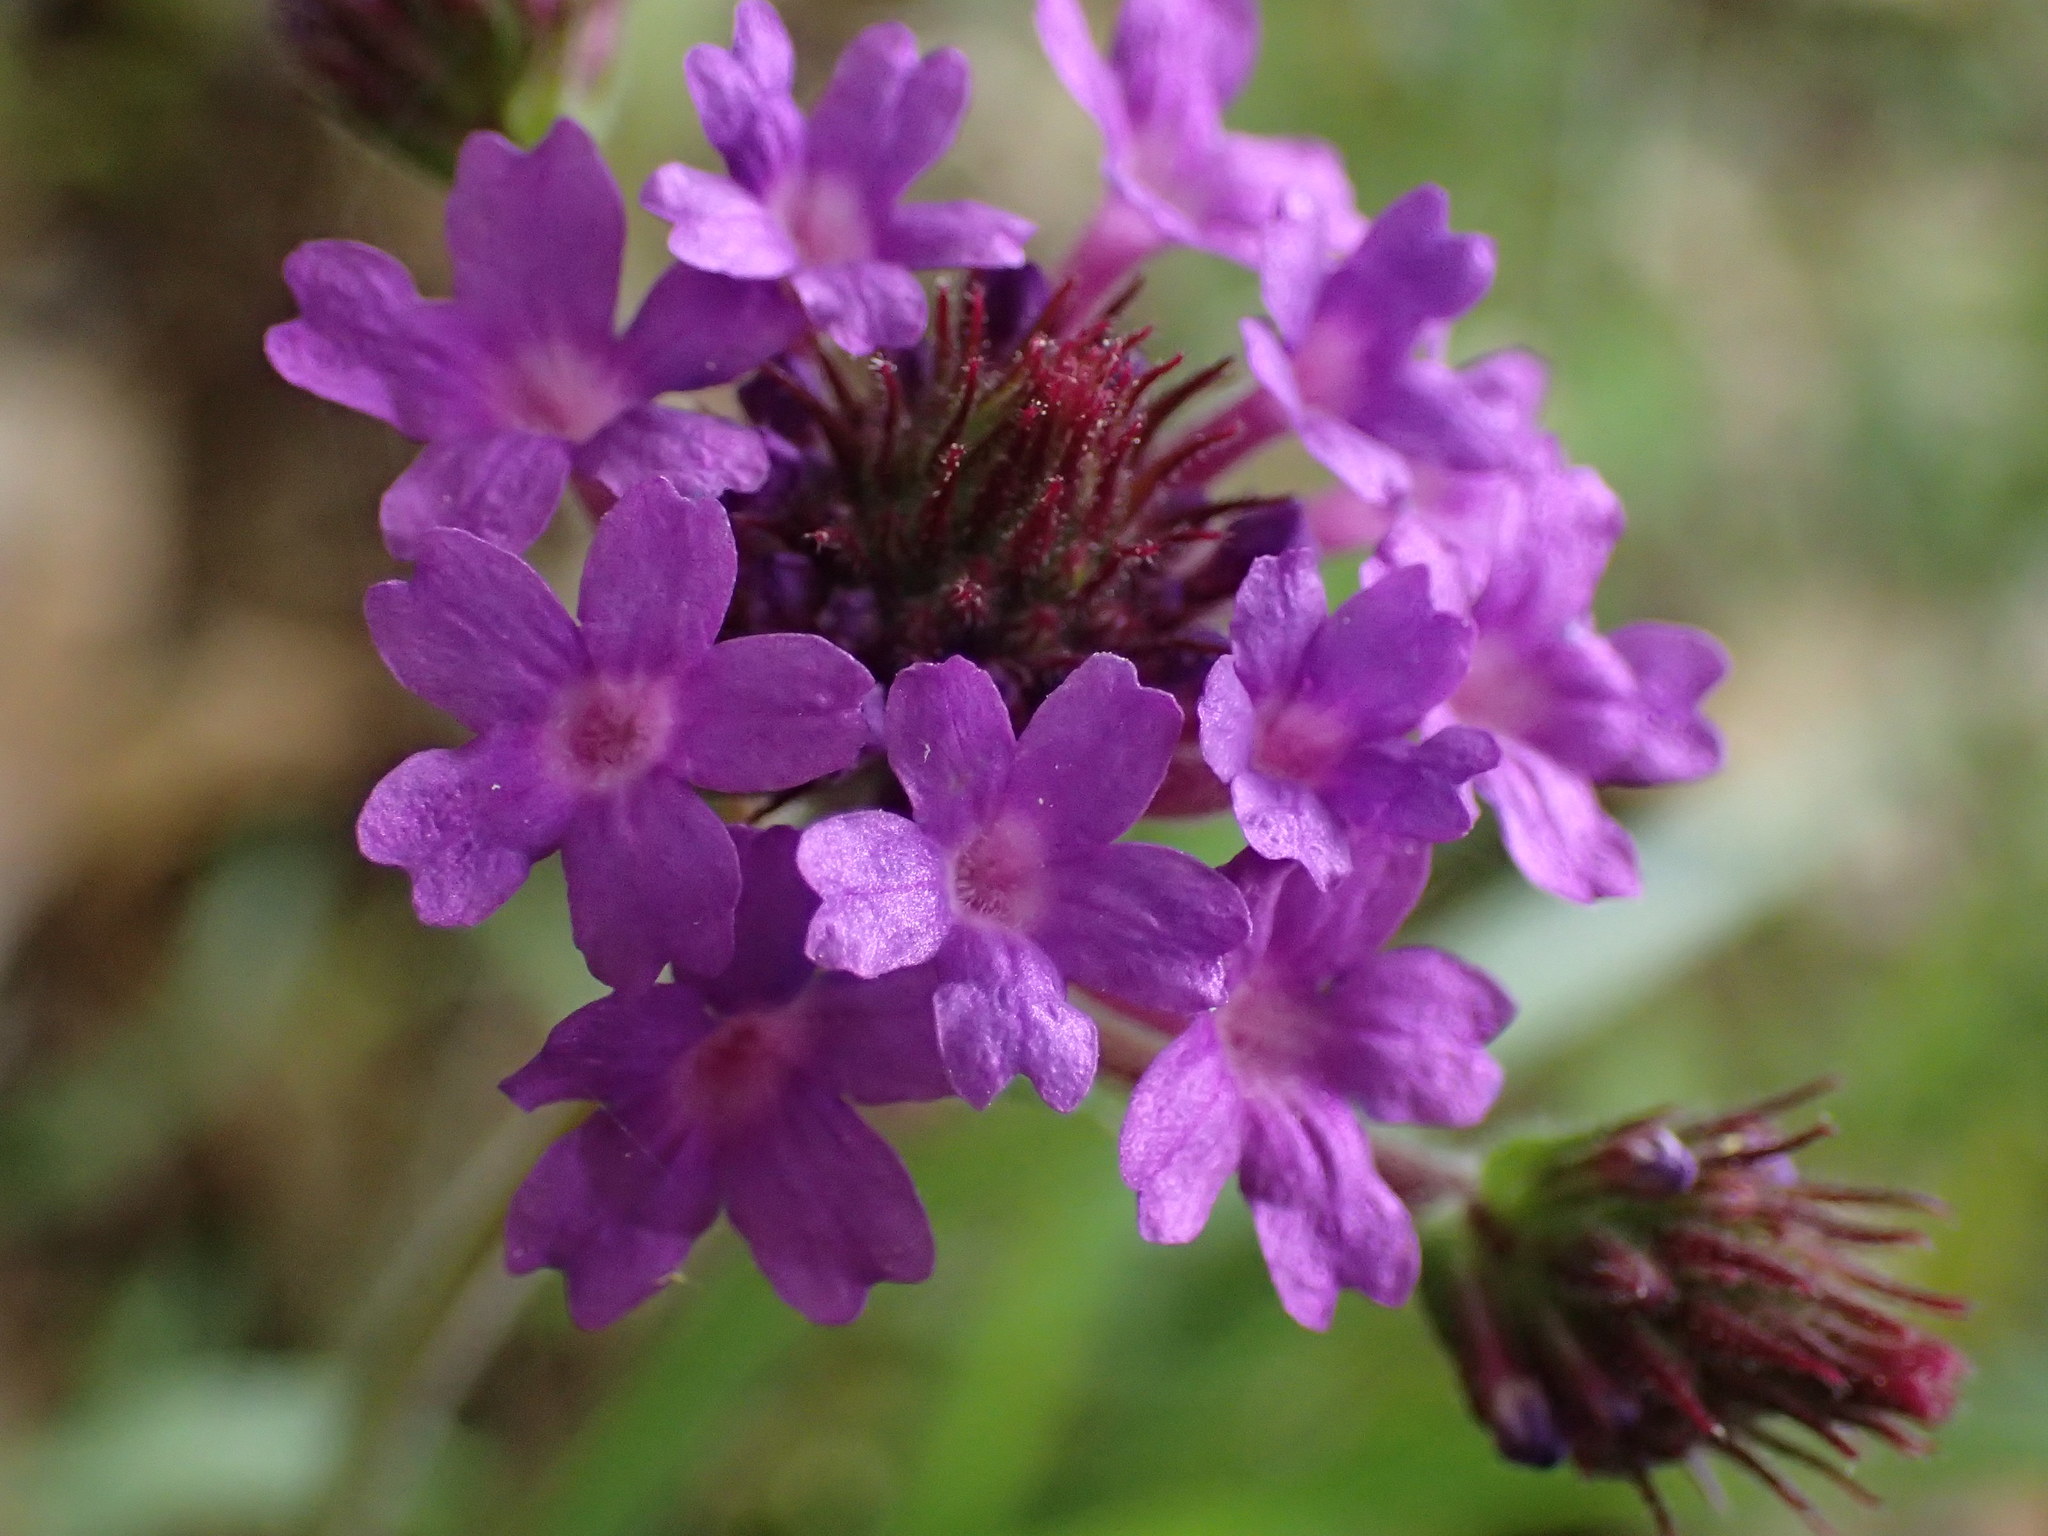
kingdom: Plantae
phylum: Tracheophyta
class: Magnoliopsida
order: Lamiales
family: Verbenaceae
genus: Verbena
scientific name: Verbena rigida
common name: Slender vervain
